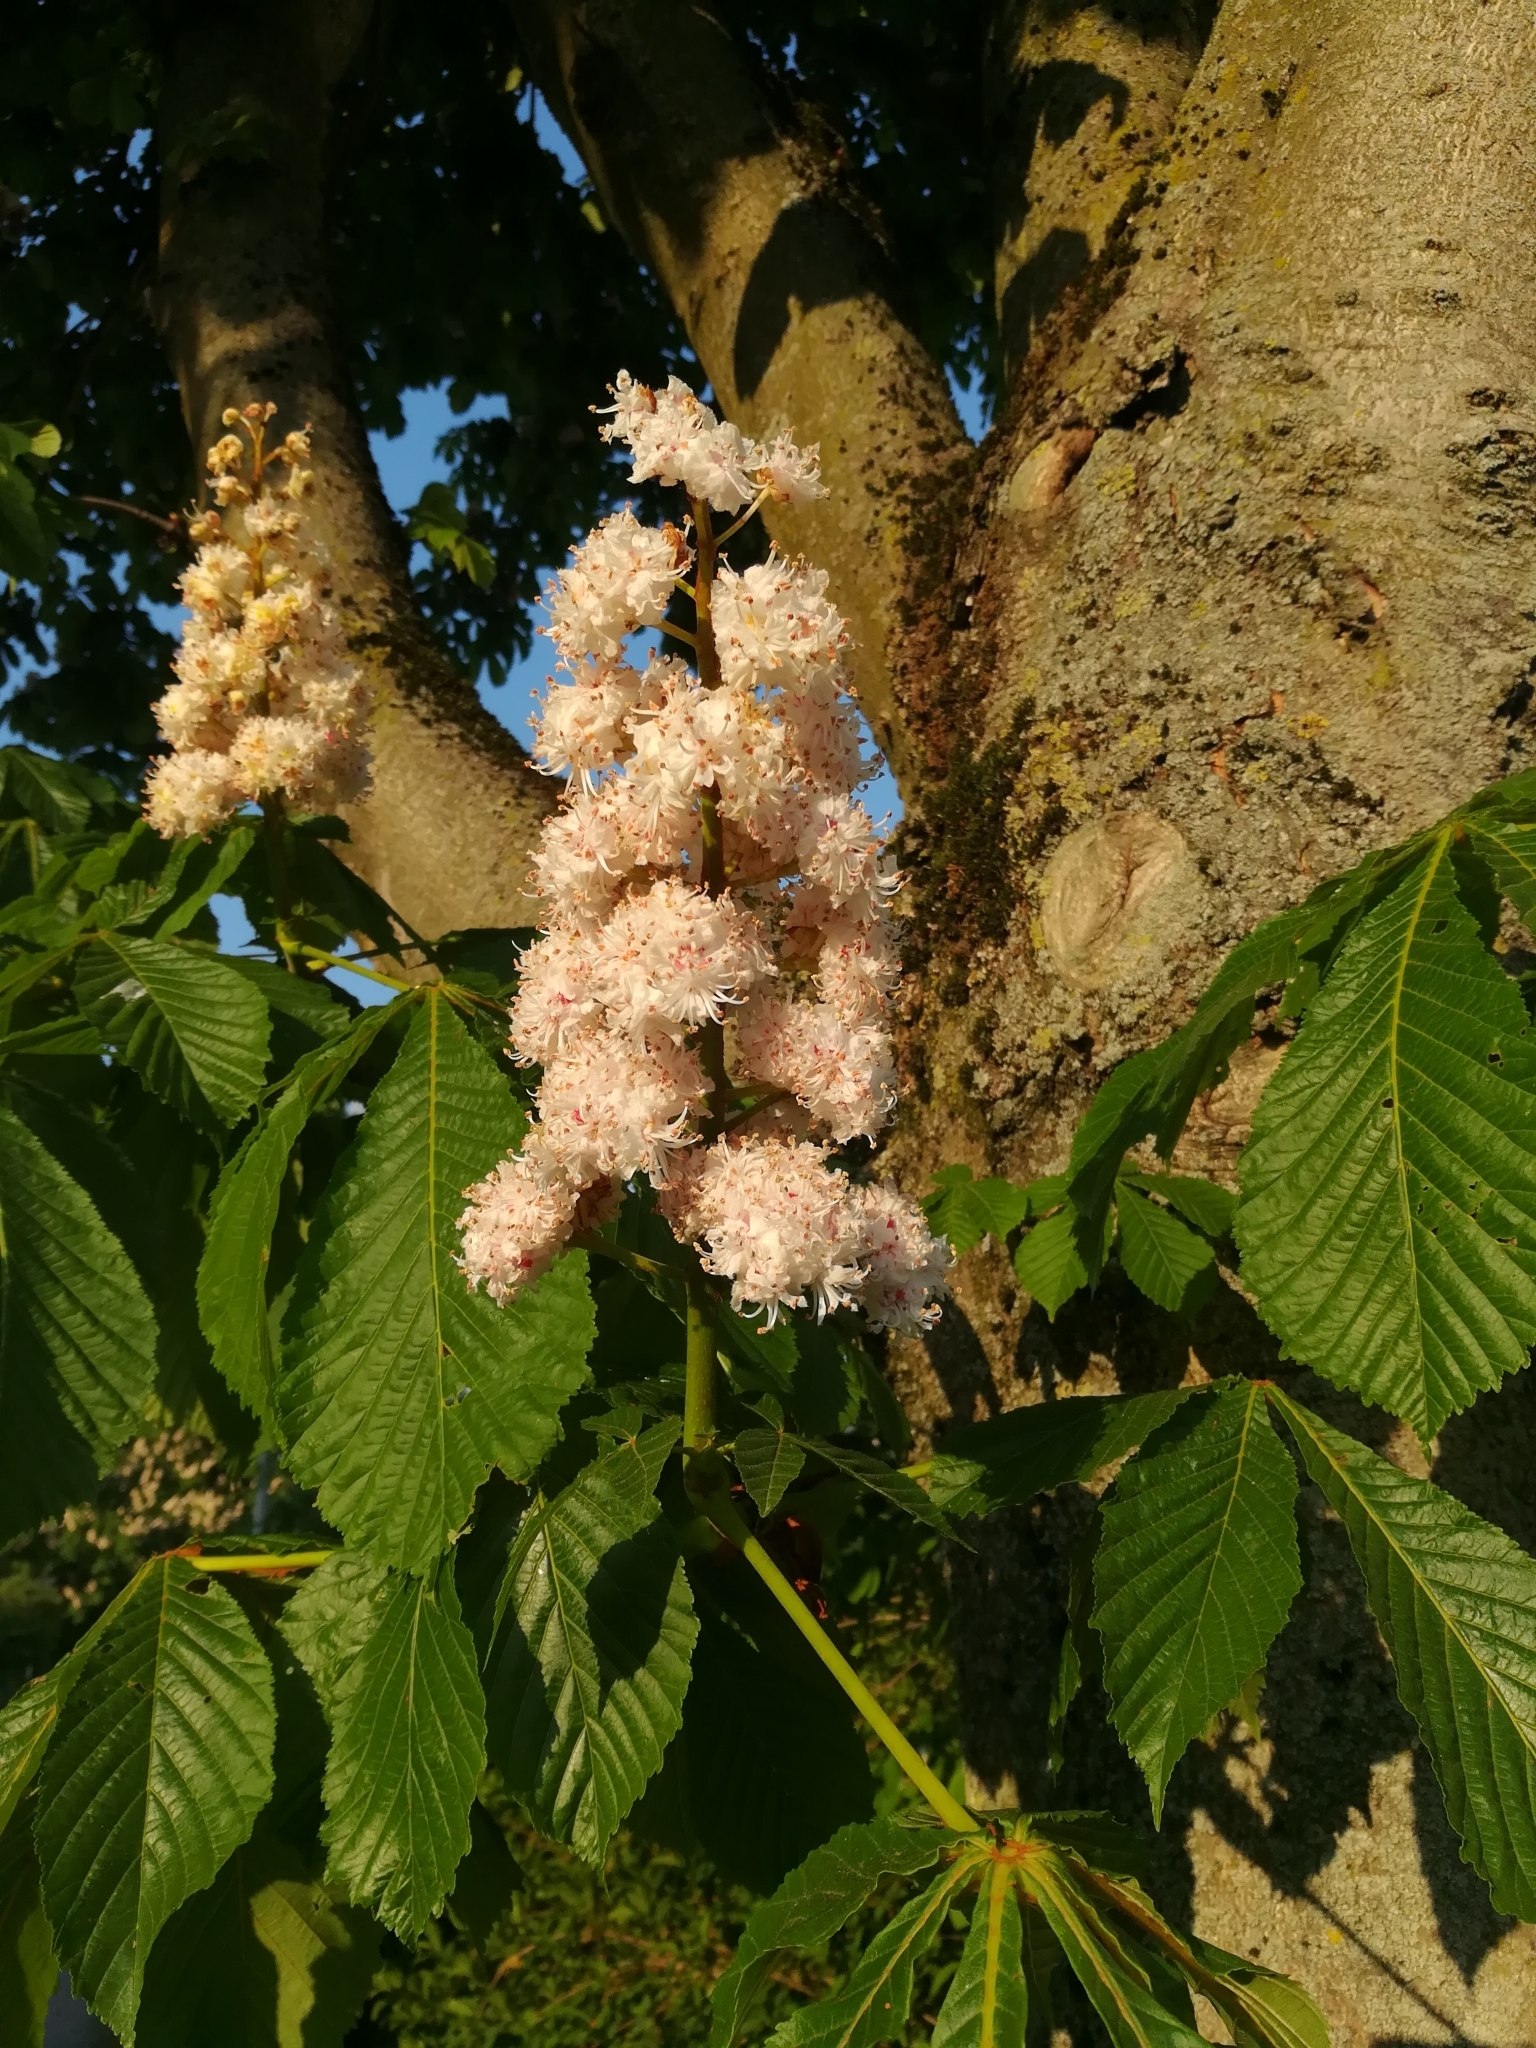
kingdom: Plantae
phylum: Tracheophyta
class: Magnoliopsida
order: Sapindales
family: Sapindaceae
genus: Aesculus
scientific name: Aesculus hippocastanum
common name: Horse-chestnut
